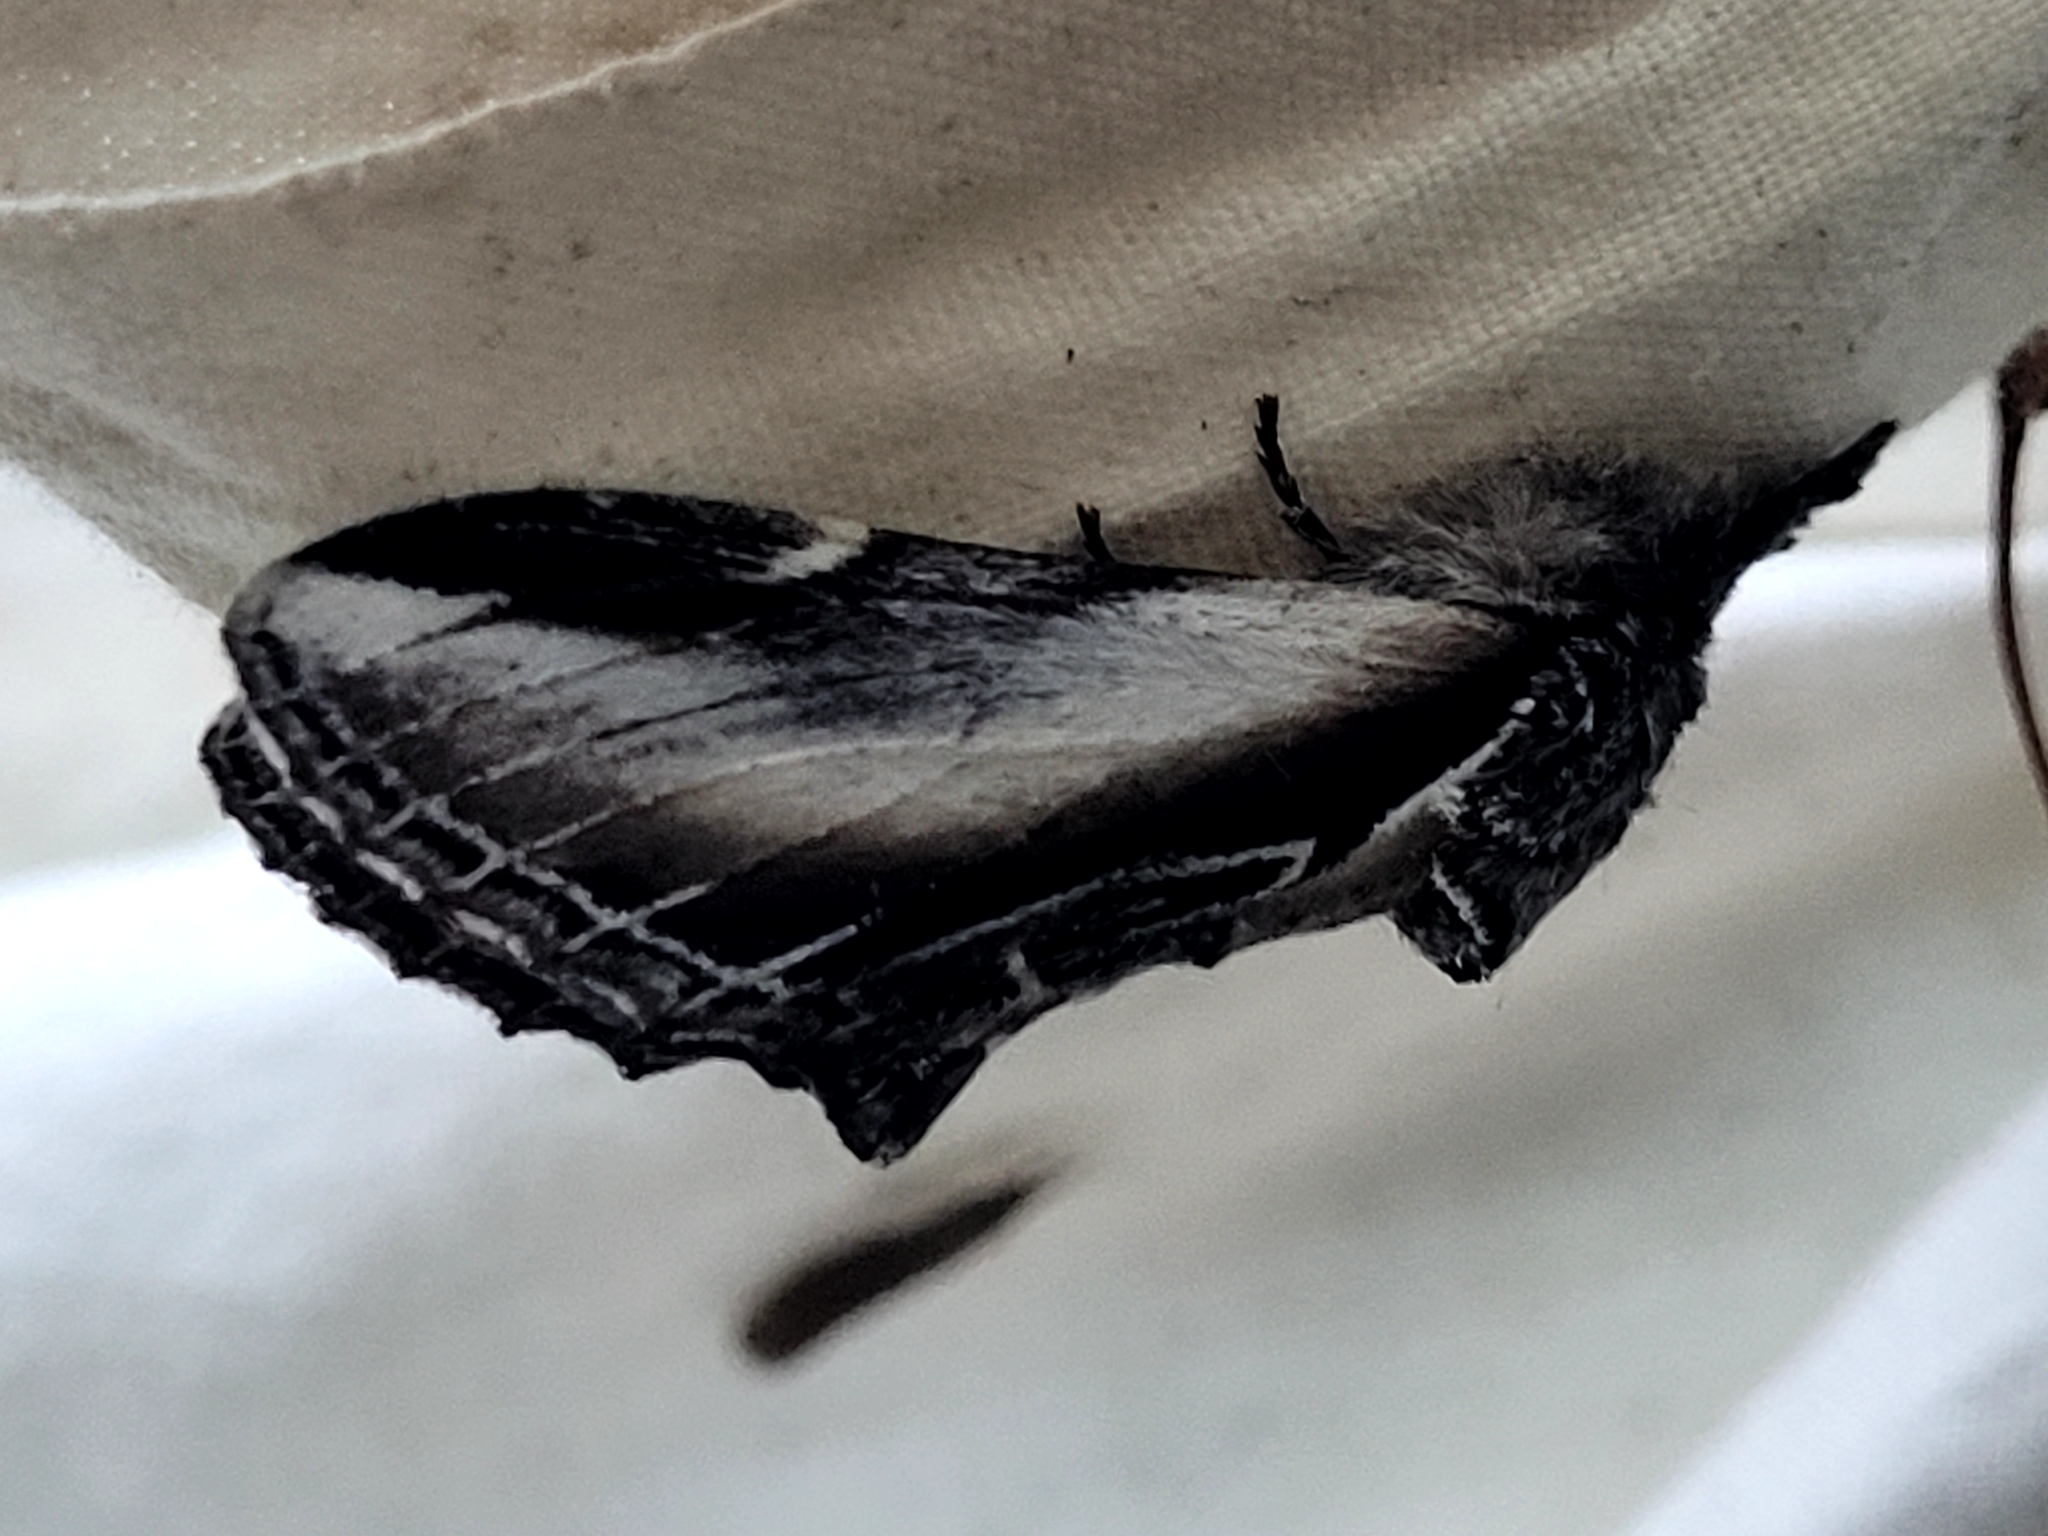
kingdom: Animalia
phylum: Arthropoda
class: Insecta
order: Lepidoptera
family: Notodontidae
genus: Pheosia
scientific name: Pheosia rimosa
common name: Black-rimmed prominent
